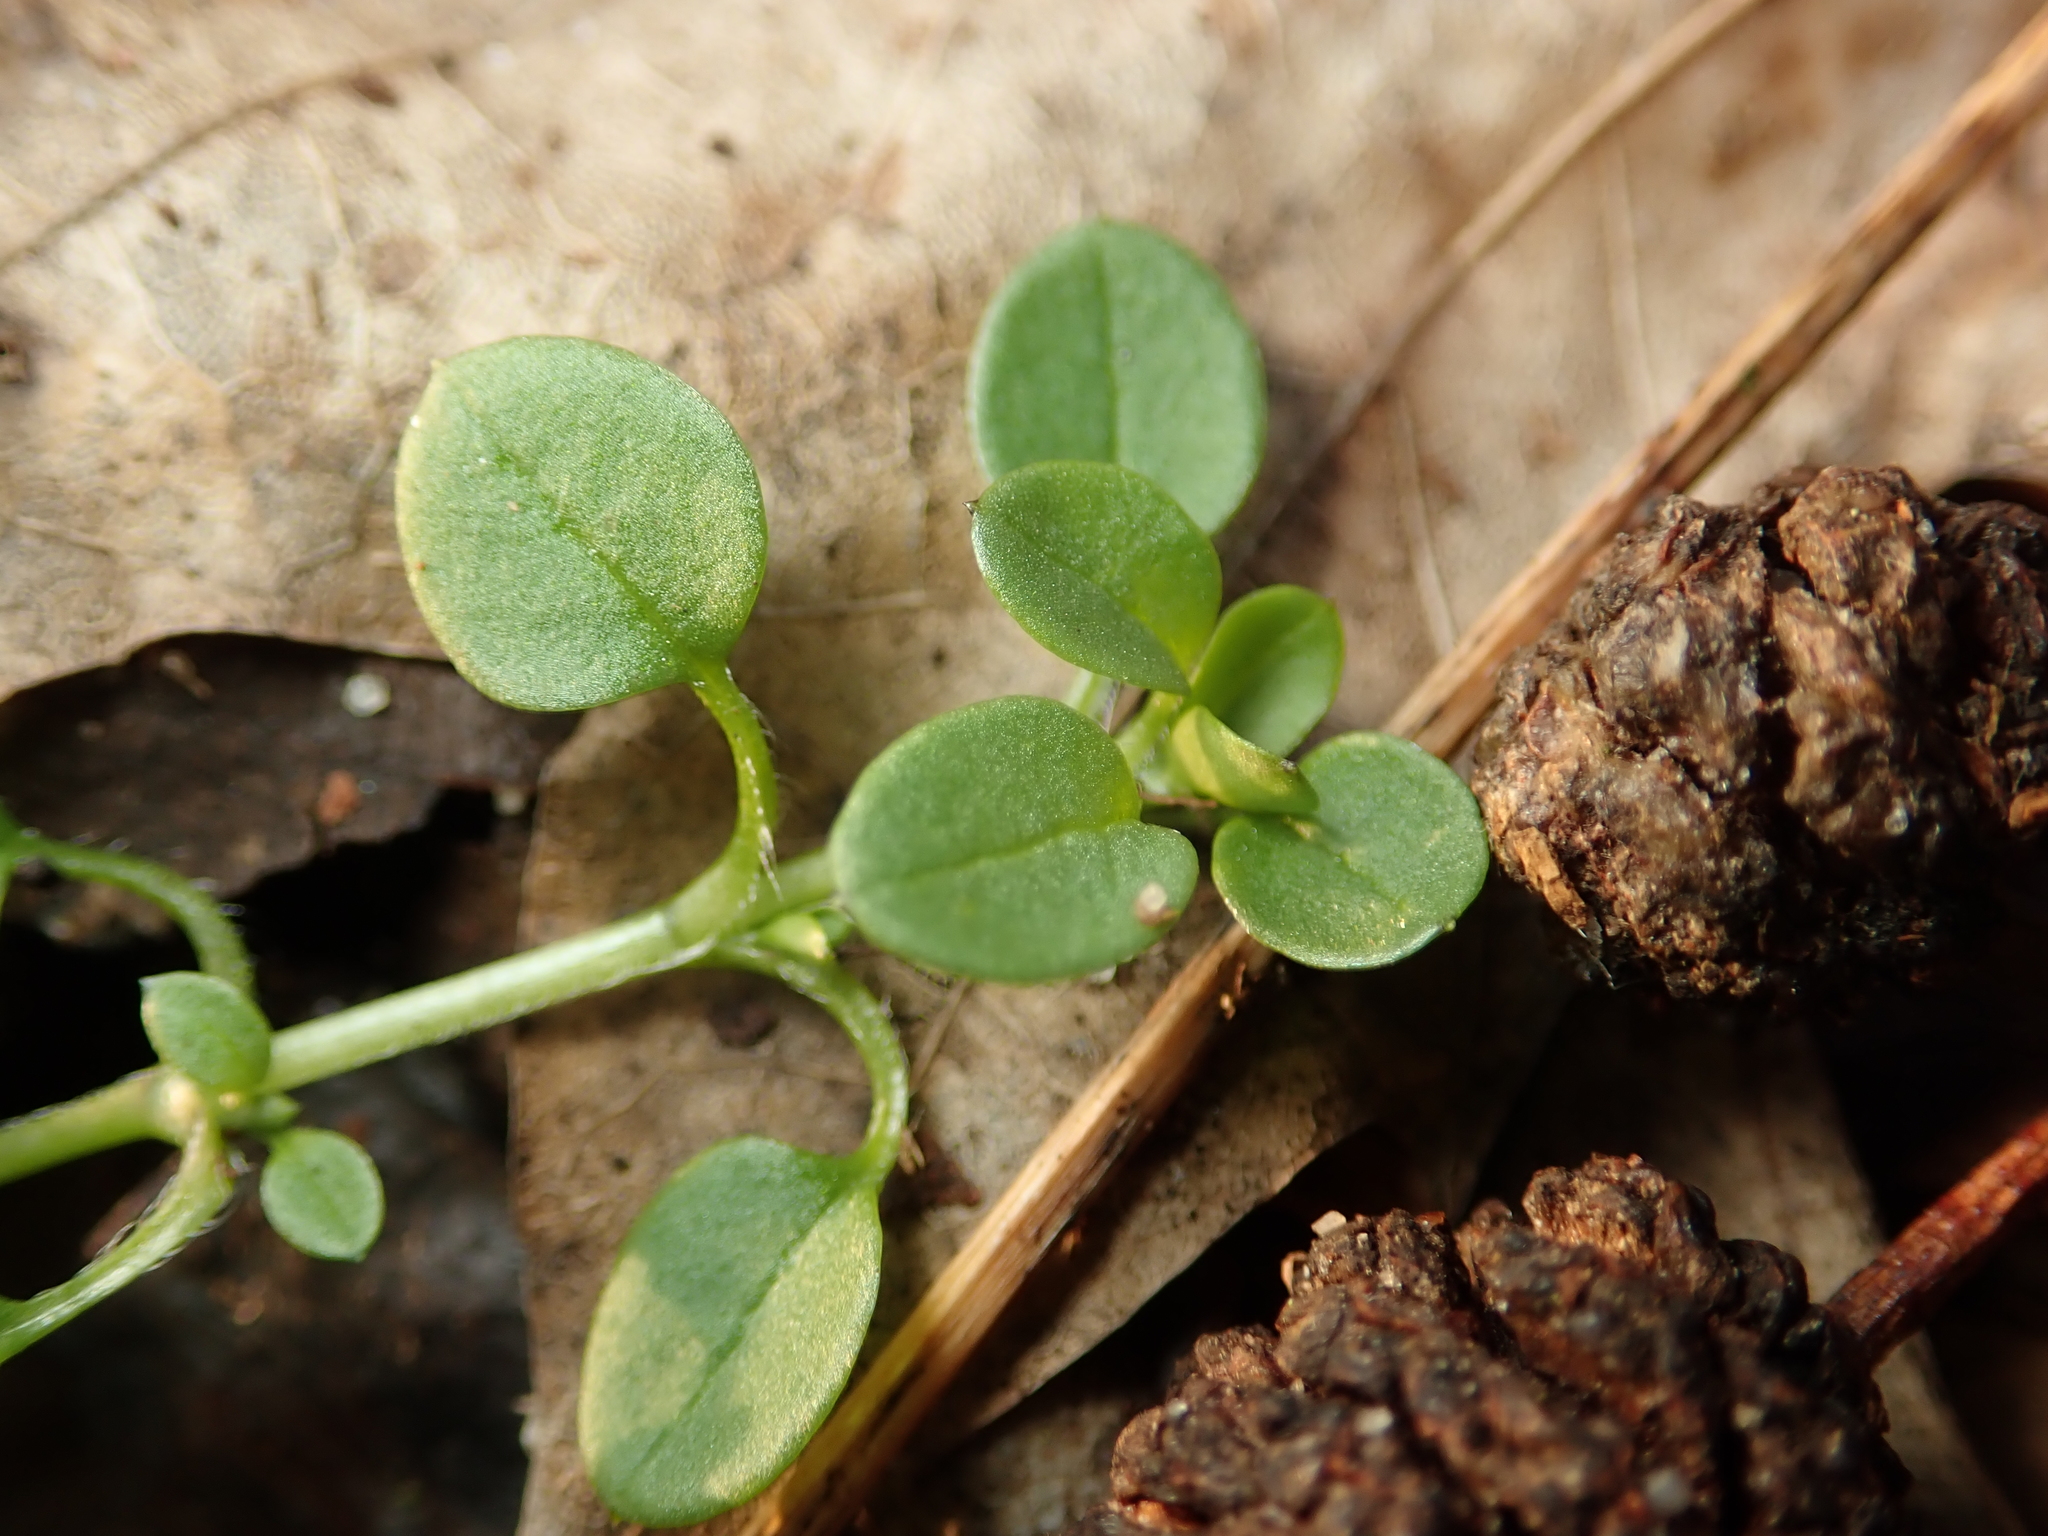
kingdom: Plantae
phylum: Tracheophyta
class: Magnoliopsida
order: Caryophyllales
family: Caryophyllaceae
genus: Stellaria
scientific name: Stellaria media
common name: Common chickweed
